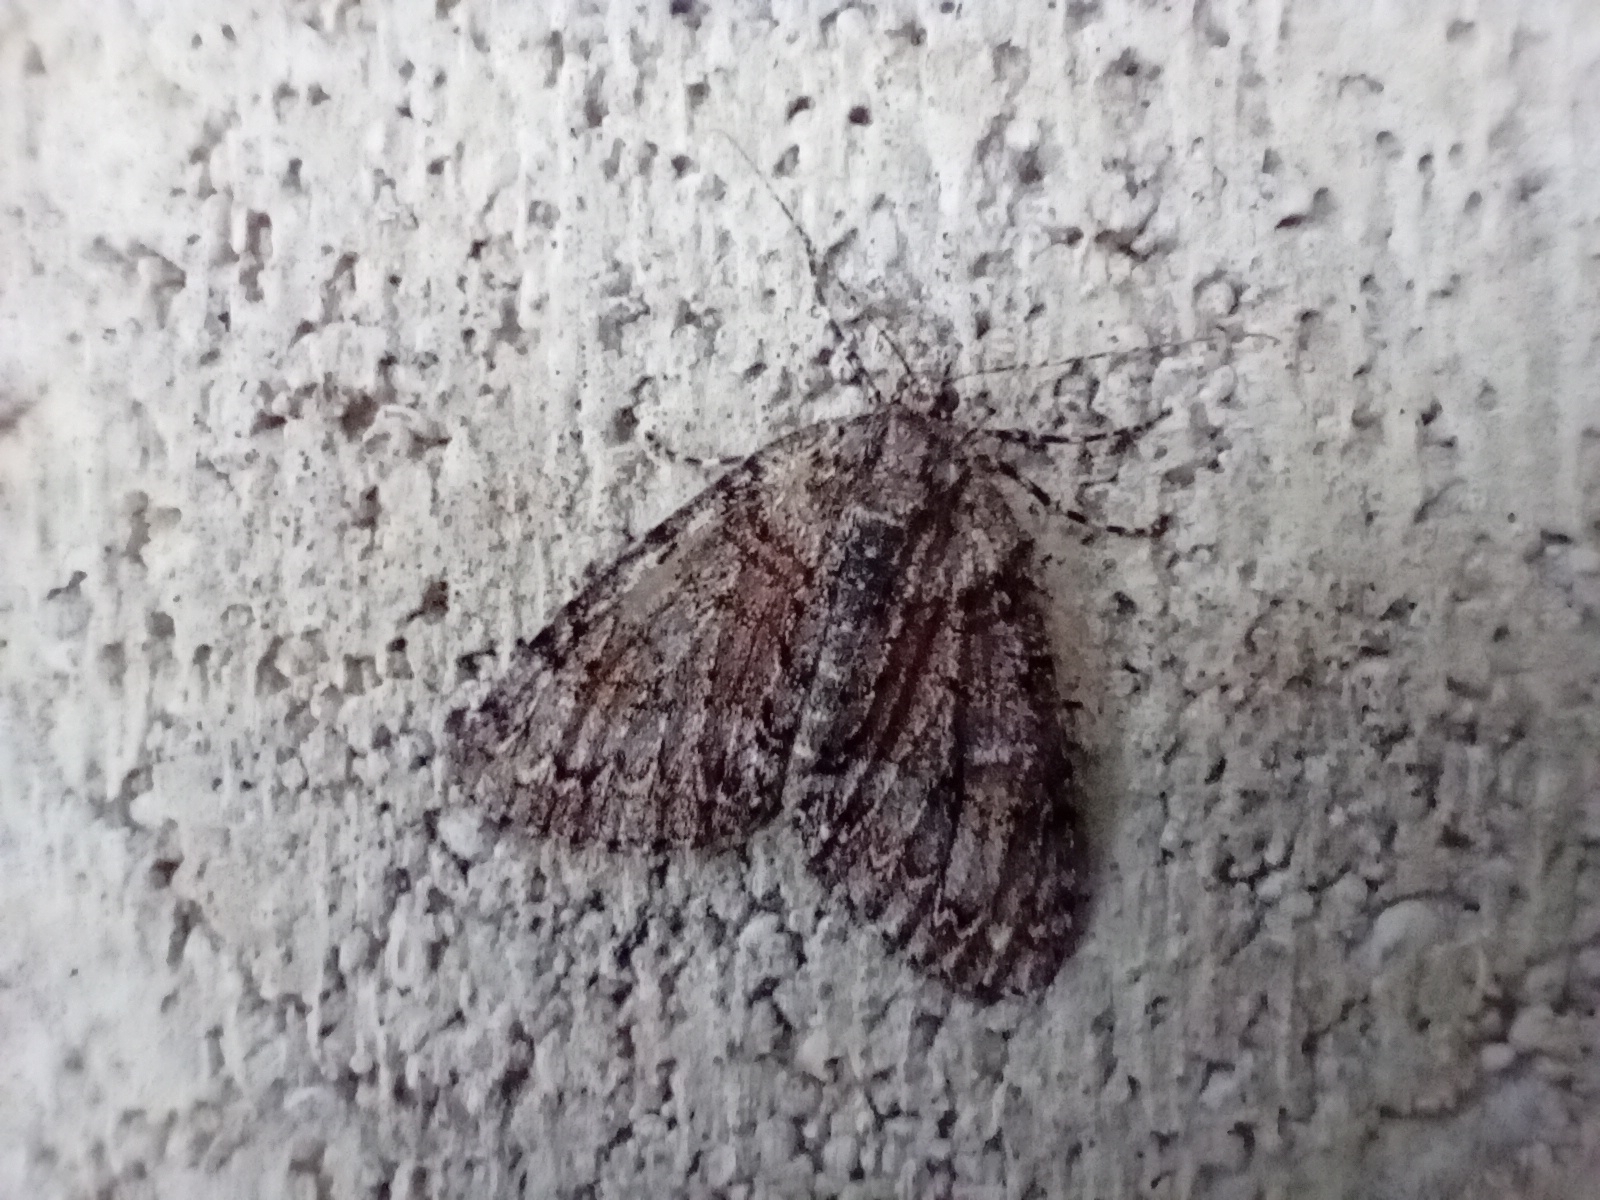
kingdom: Animalia
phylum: Arthropoda
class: Insecta
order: Lepidoptera
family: Geometridae
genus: Pseudocoremia
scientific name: Pseudocoremia suavis
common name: Common forest looper
